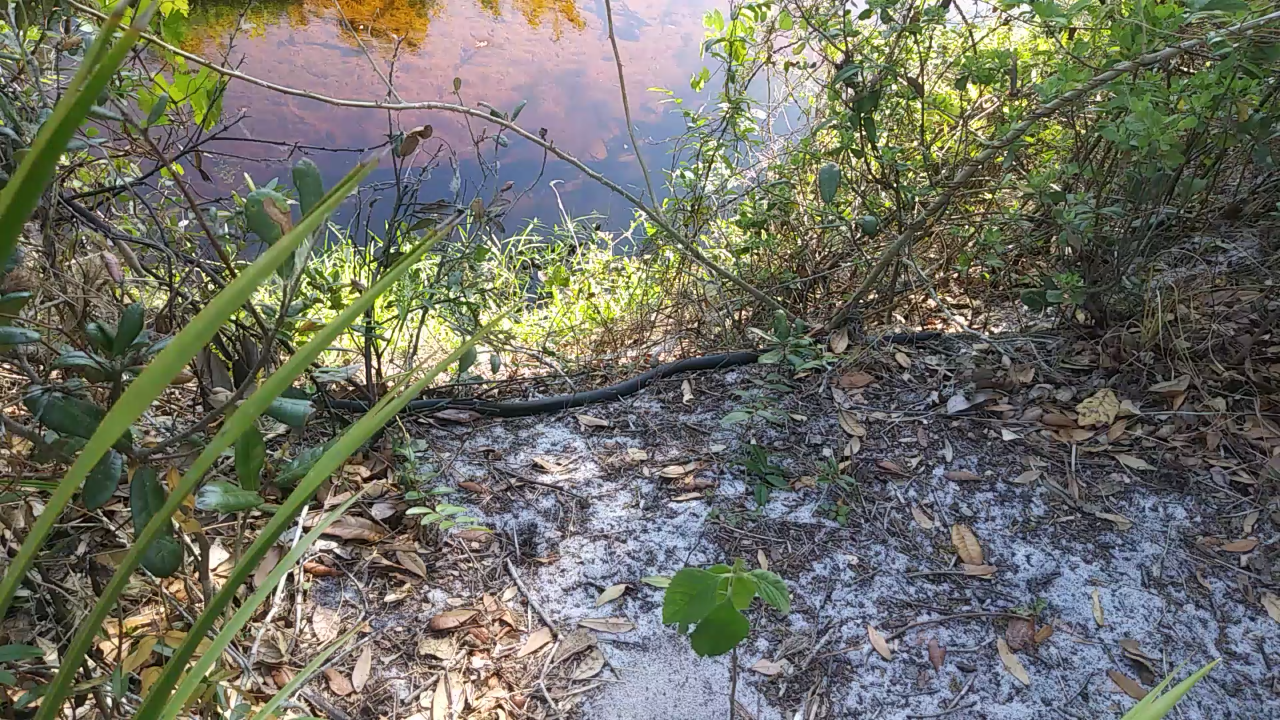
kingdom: Animalia
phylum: Chordata
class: Squamata
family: Colubridae
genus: Coluber
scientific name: Coluber constrictor
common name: Eastern racer
